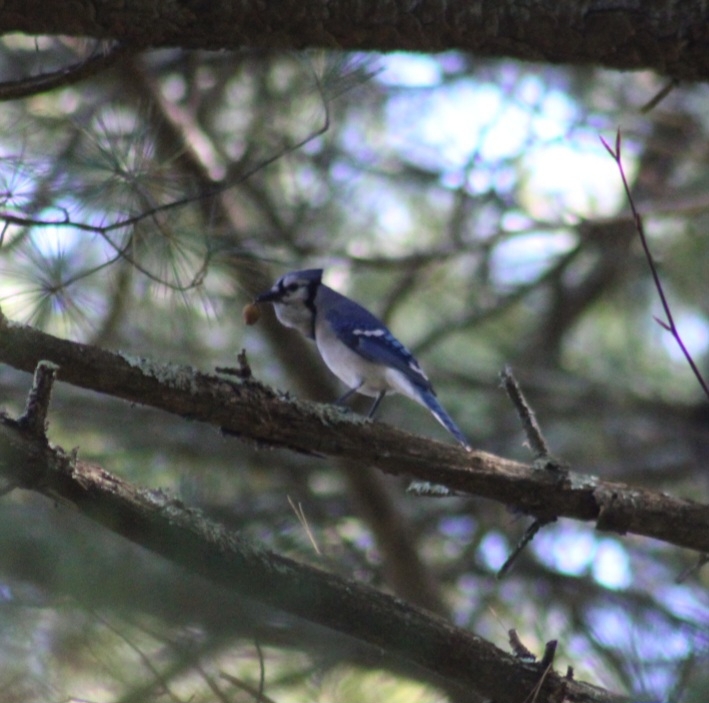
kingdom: Animalia
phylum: Chordata
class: Aves
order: Passeriformes
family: Corvidae
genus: Cyanocitta
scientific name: Cyanocitta cristata
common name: Blue jay
